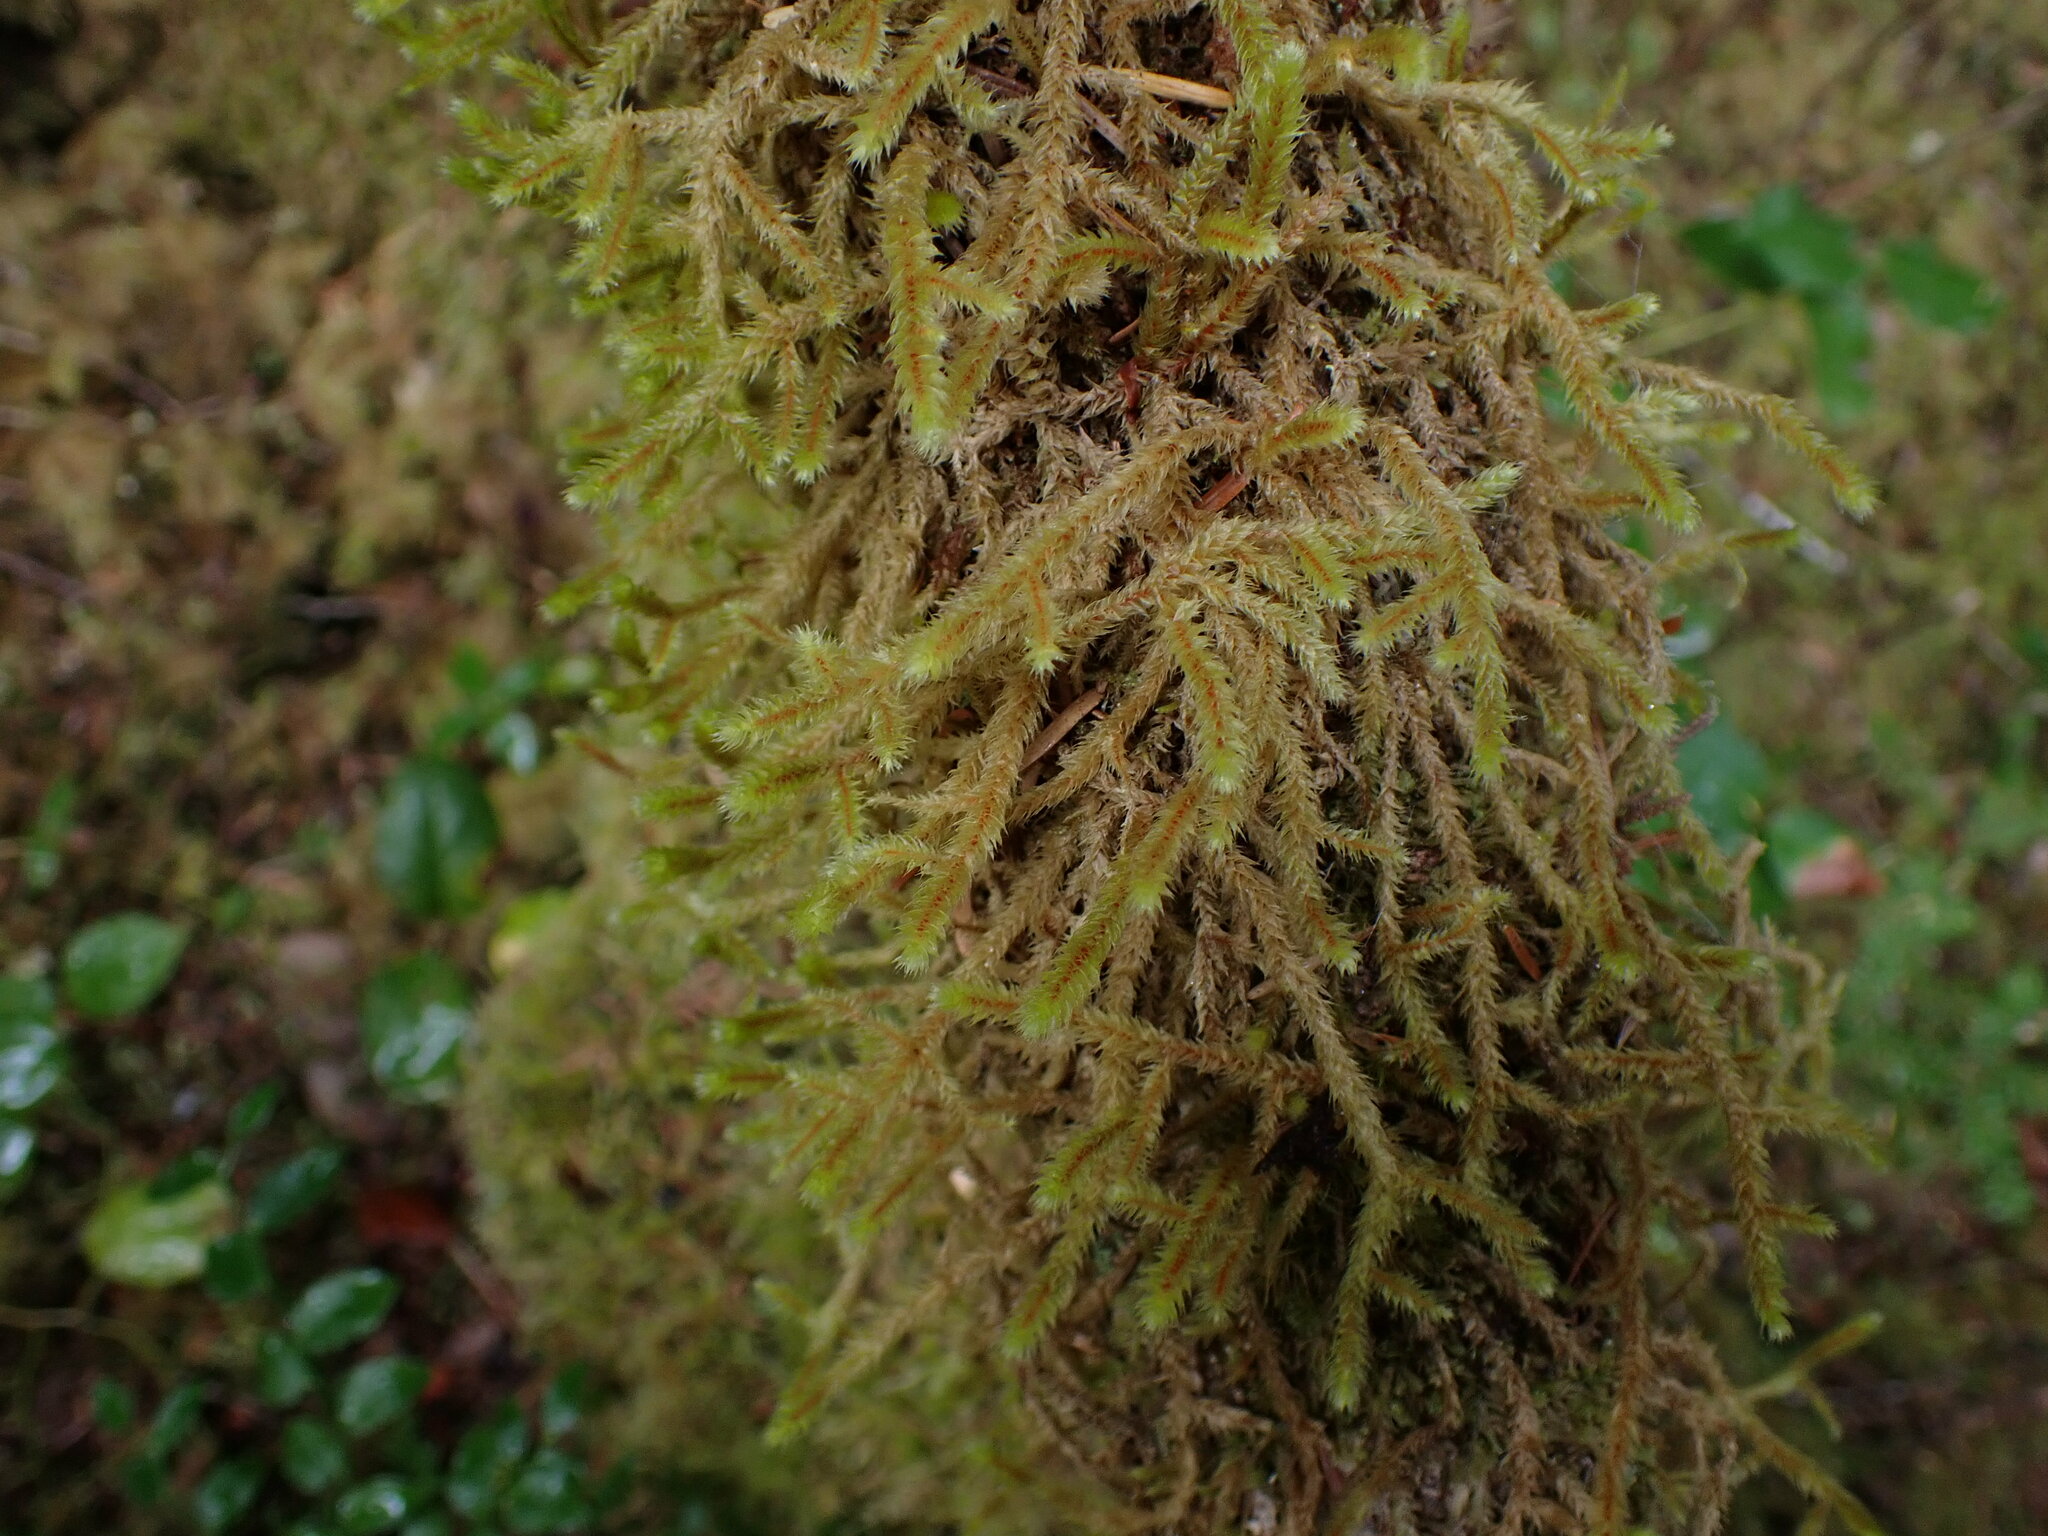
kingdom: Plantae
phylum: Bryophyta
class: Bryopsida
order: Hypnales
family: Antitrichiaceae
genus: Antitrichia
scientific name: Antitrichia curtipendula
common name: Pendulous wing-moss
